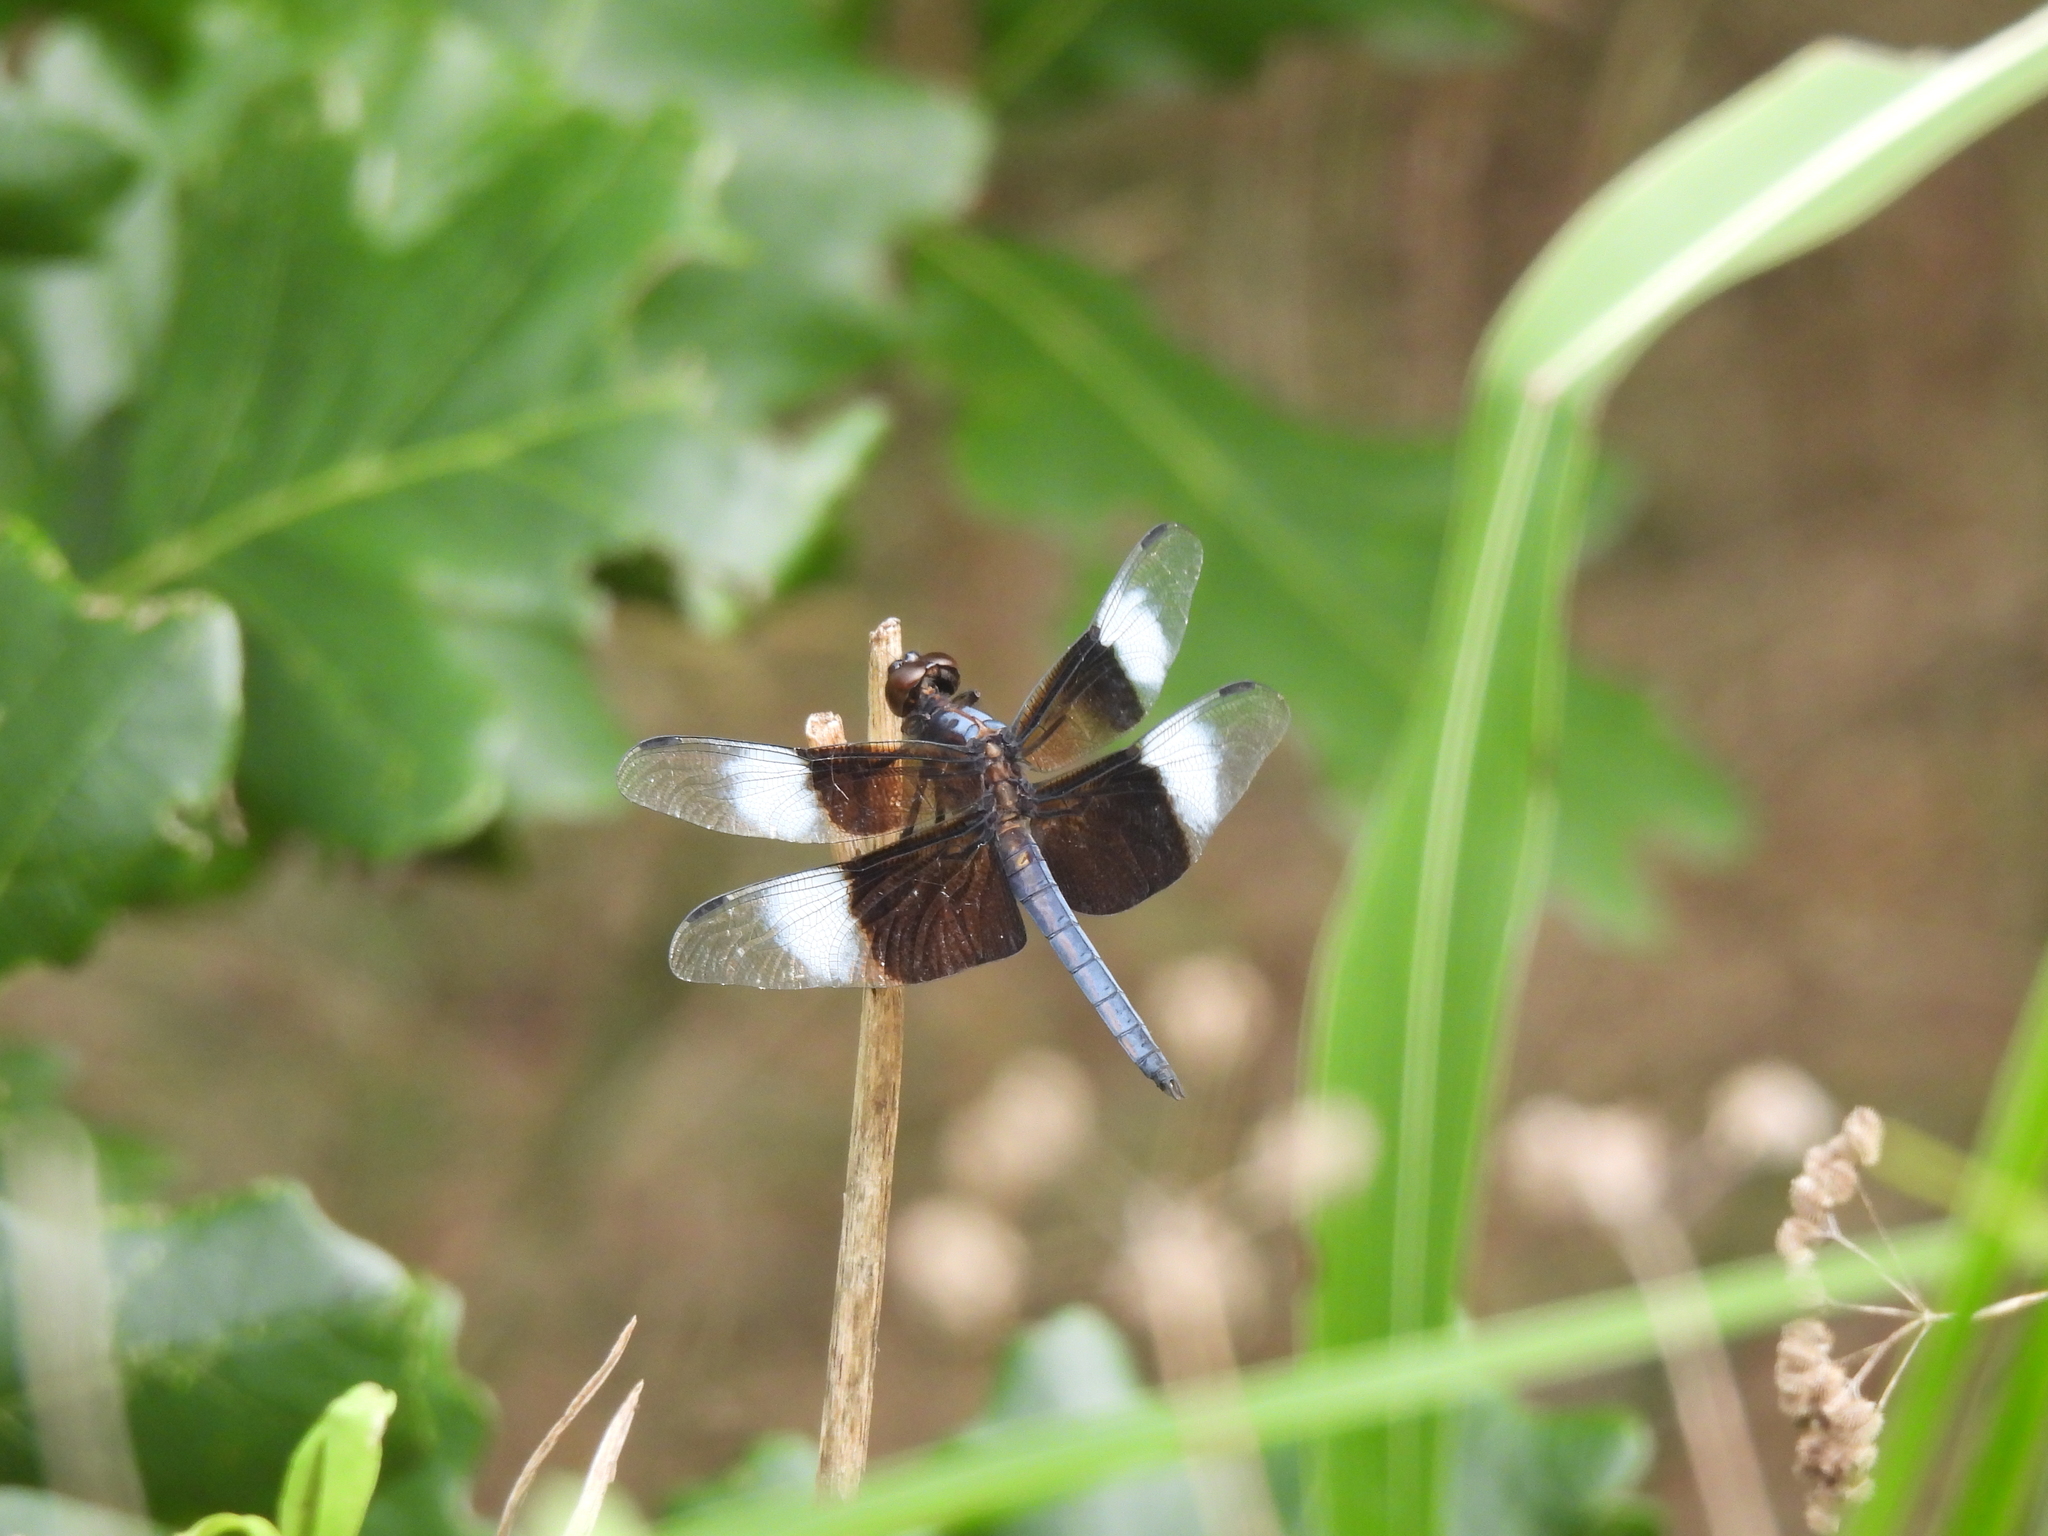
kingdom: Animalia
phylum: Arthropoda
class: Insecta
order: Odonata
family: Libellulidae
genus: Libellula
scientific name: Libellula luctuosa
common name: Widow skimmer
